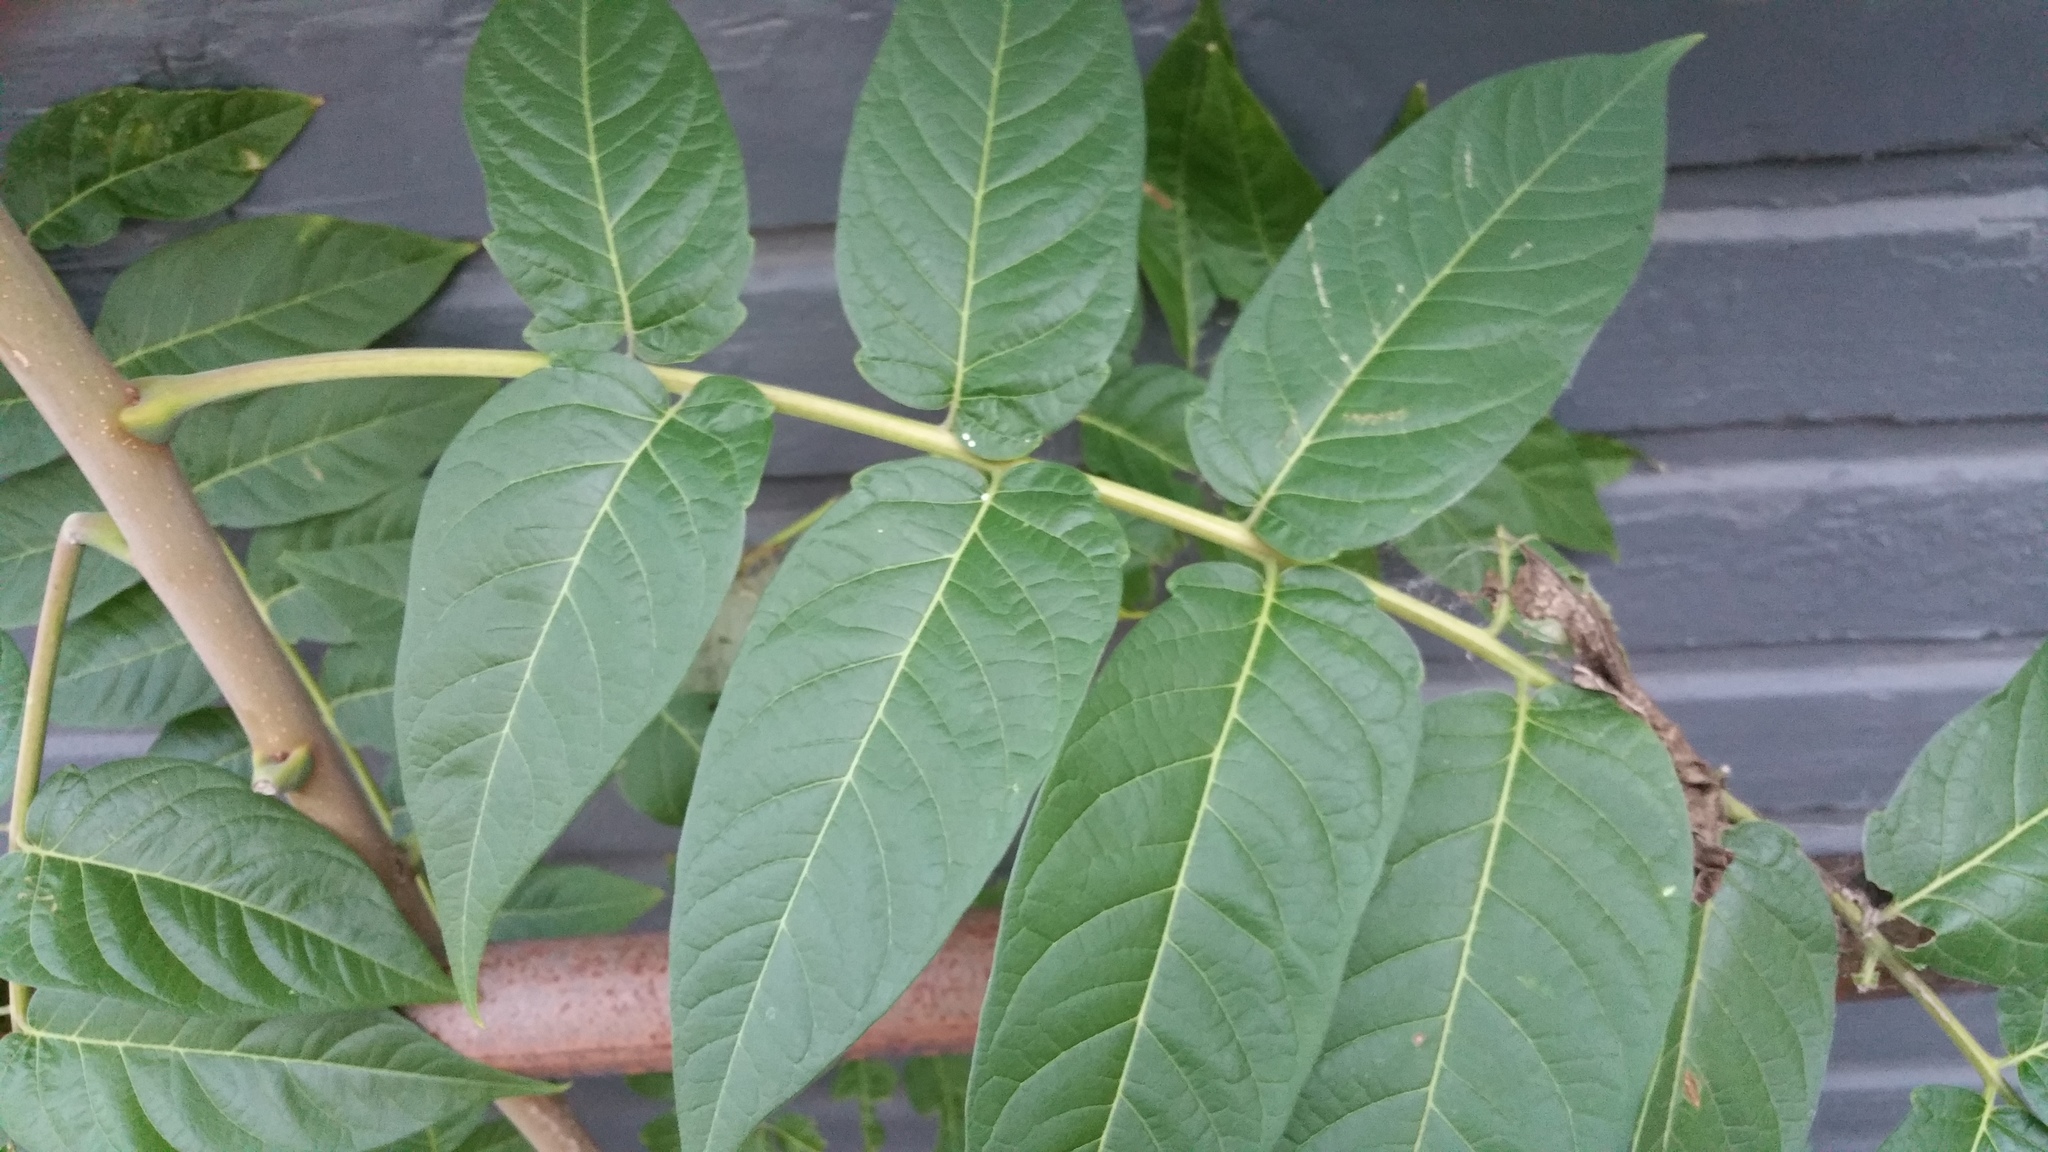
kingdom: Plantae
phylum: Tracheophyta
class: Magnoliopsida
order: Sapindales
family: Simaroubaceae
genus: Ailanthus
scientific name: Ailanthus altissima
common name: Tree-of-heaven
